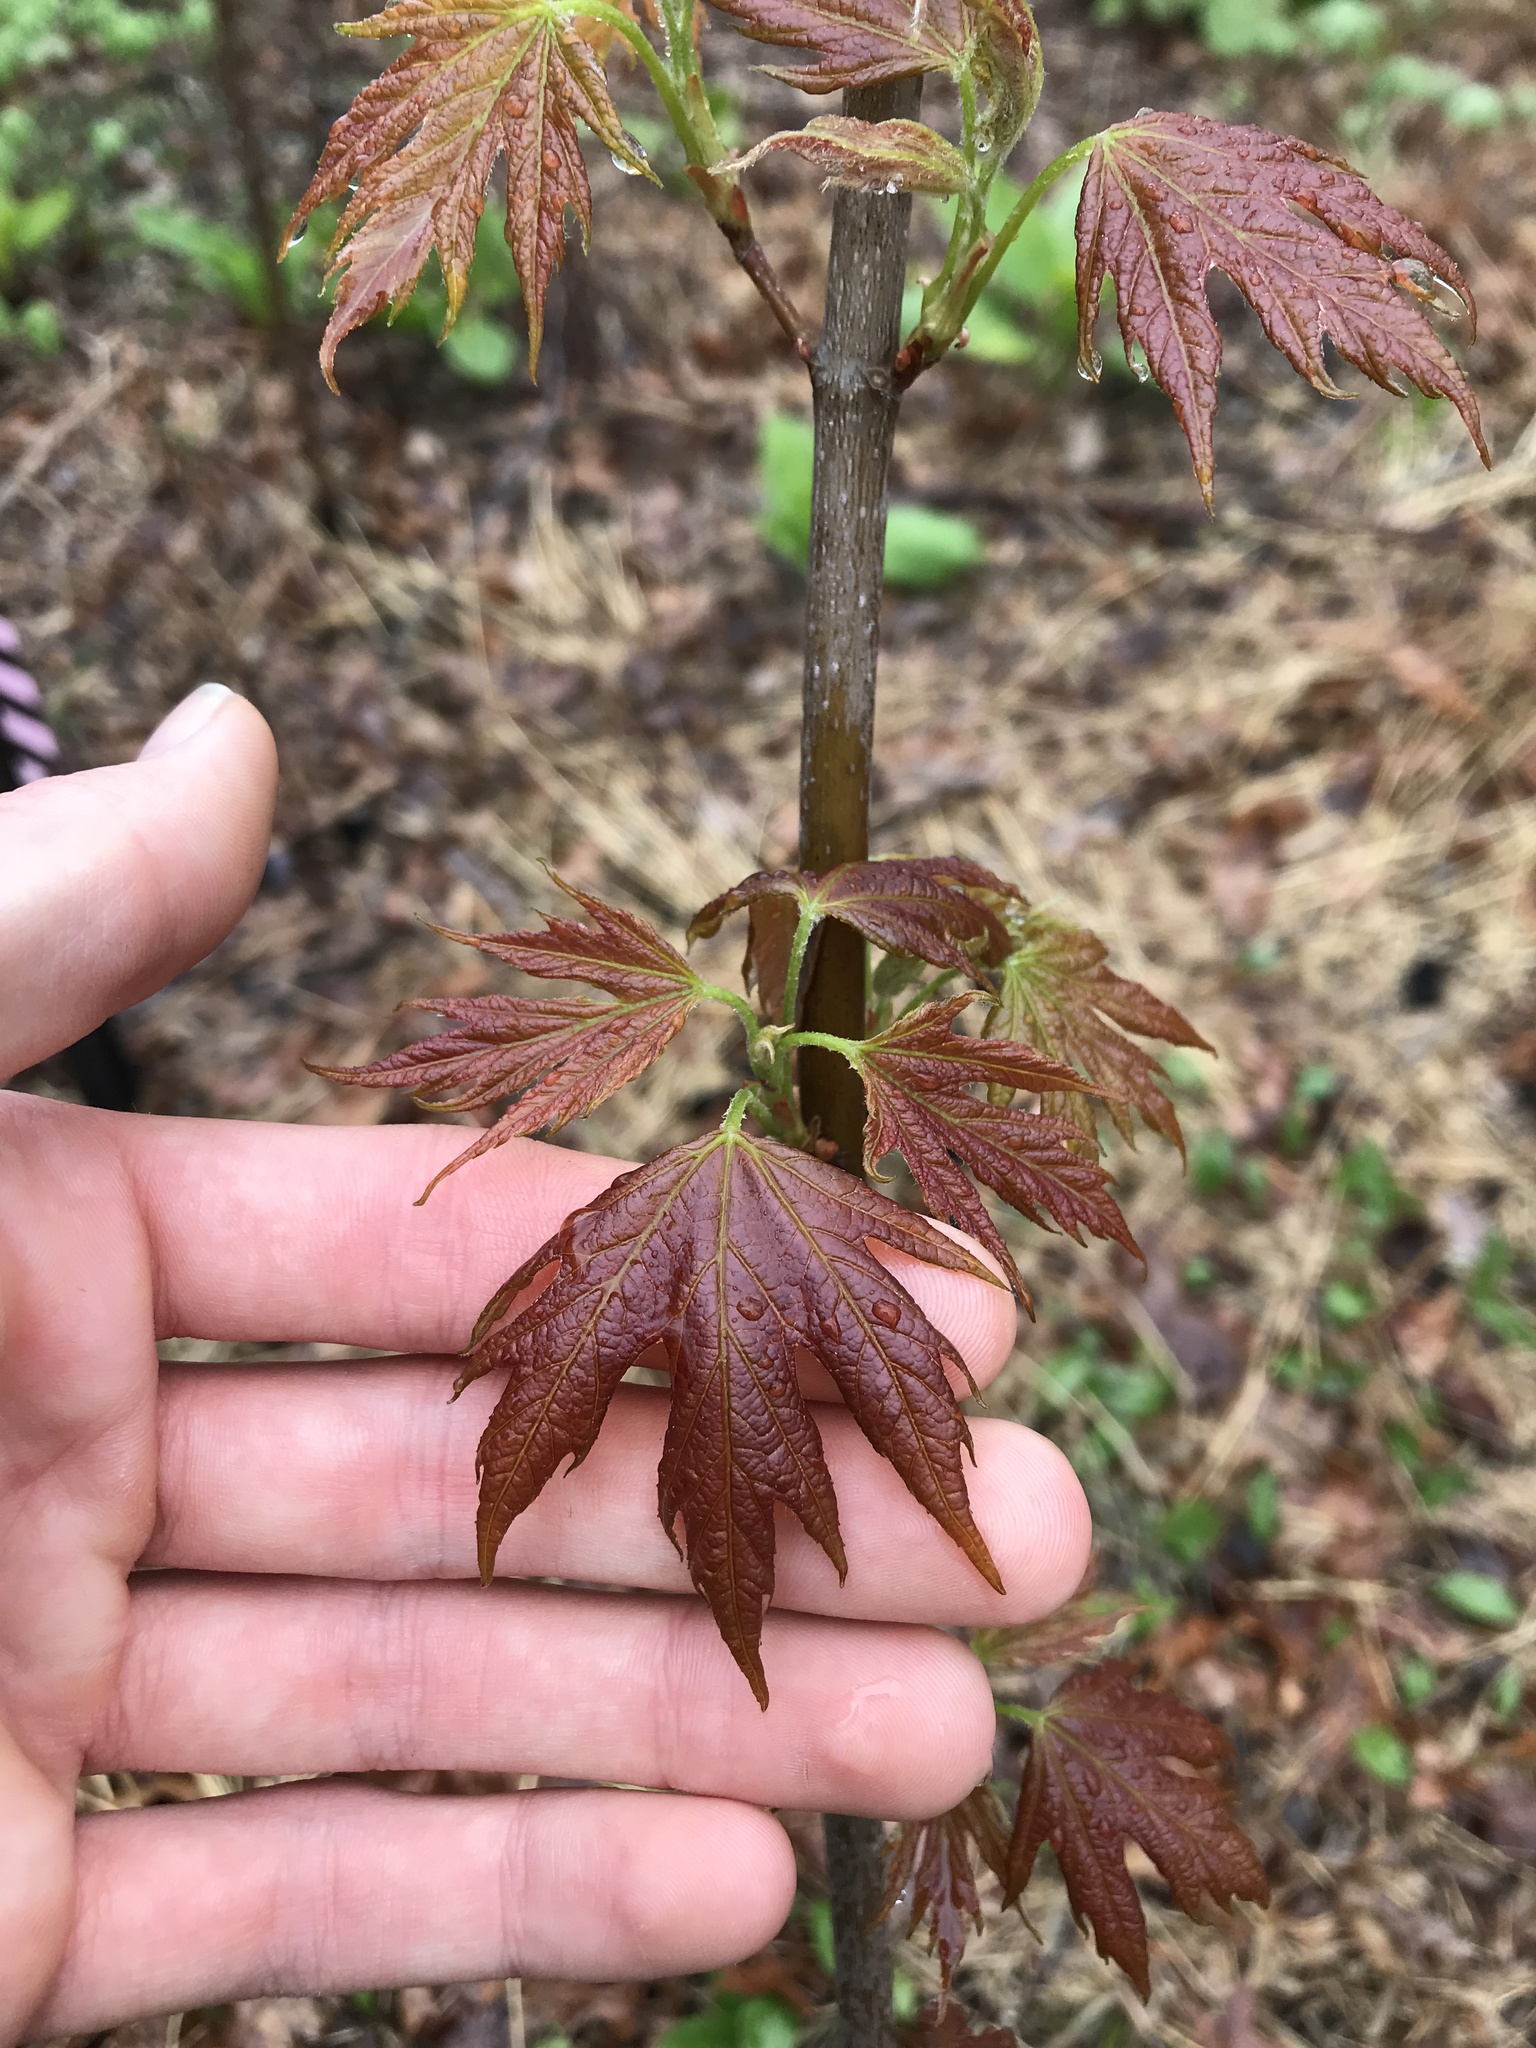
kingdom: Plantae
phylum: Tracheophyta
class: Magnoliopsida
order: Sapindales
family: Sapindaceae
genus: Acer
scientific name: Acer saccharinum
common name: Silver maple
